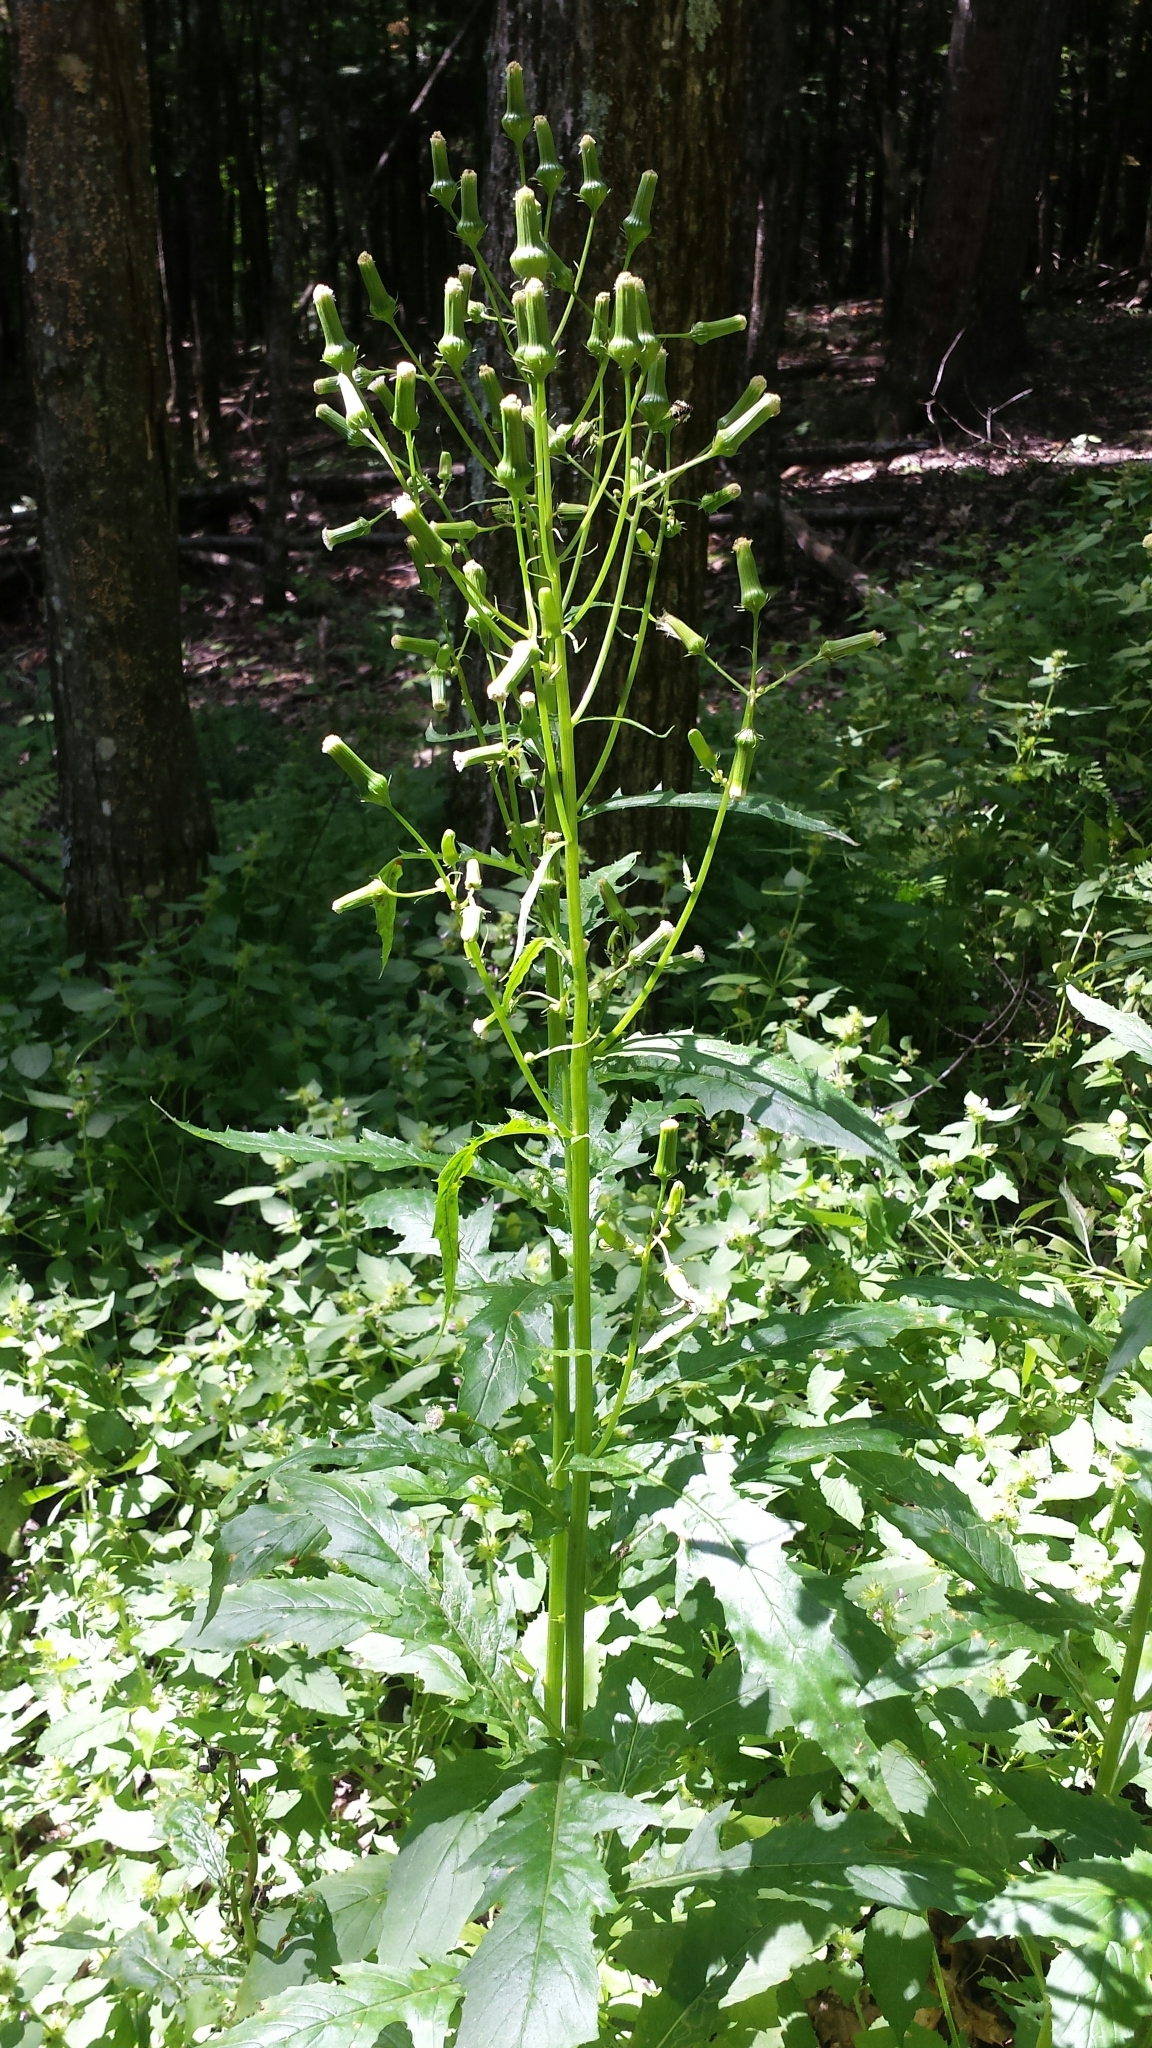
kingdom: Plantae
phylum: Tracheophyta
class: Magnoliopsida
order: Asterales
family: Asteraceae
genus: Erechtites
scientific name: Erechtites hieraciifolius
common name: American burnweed
